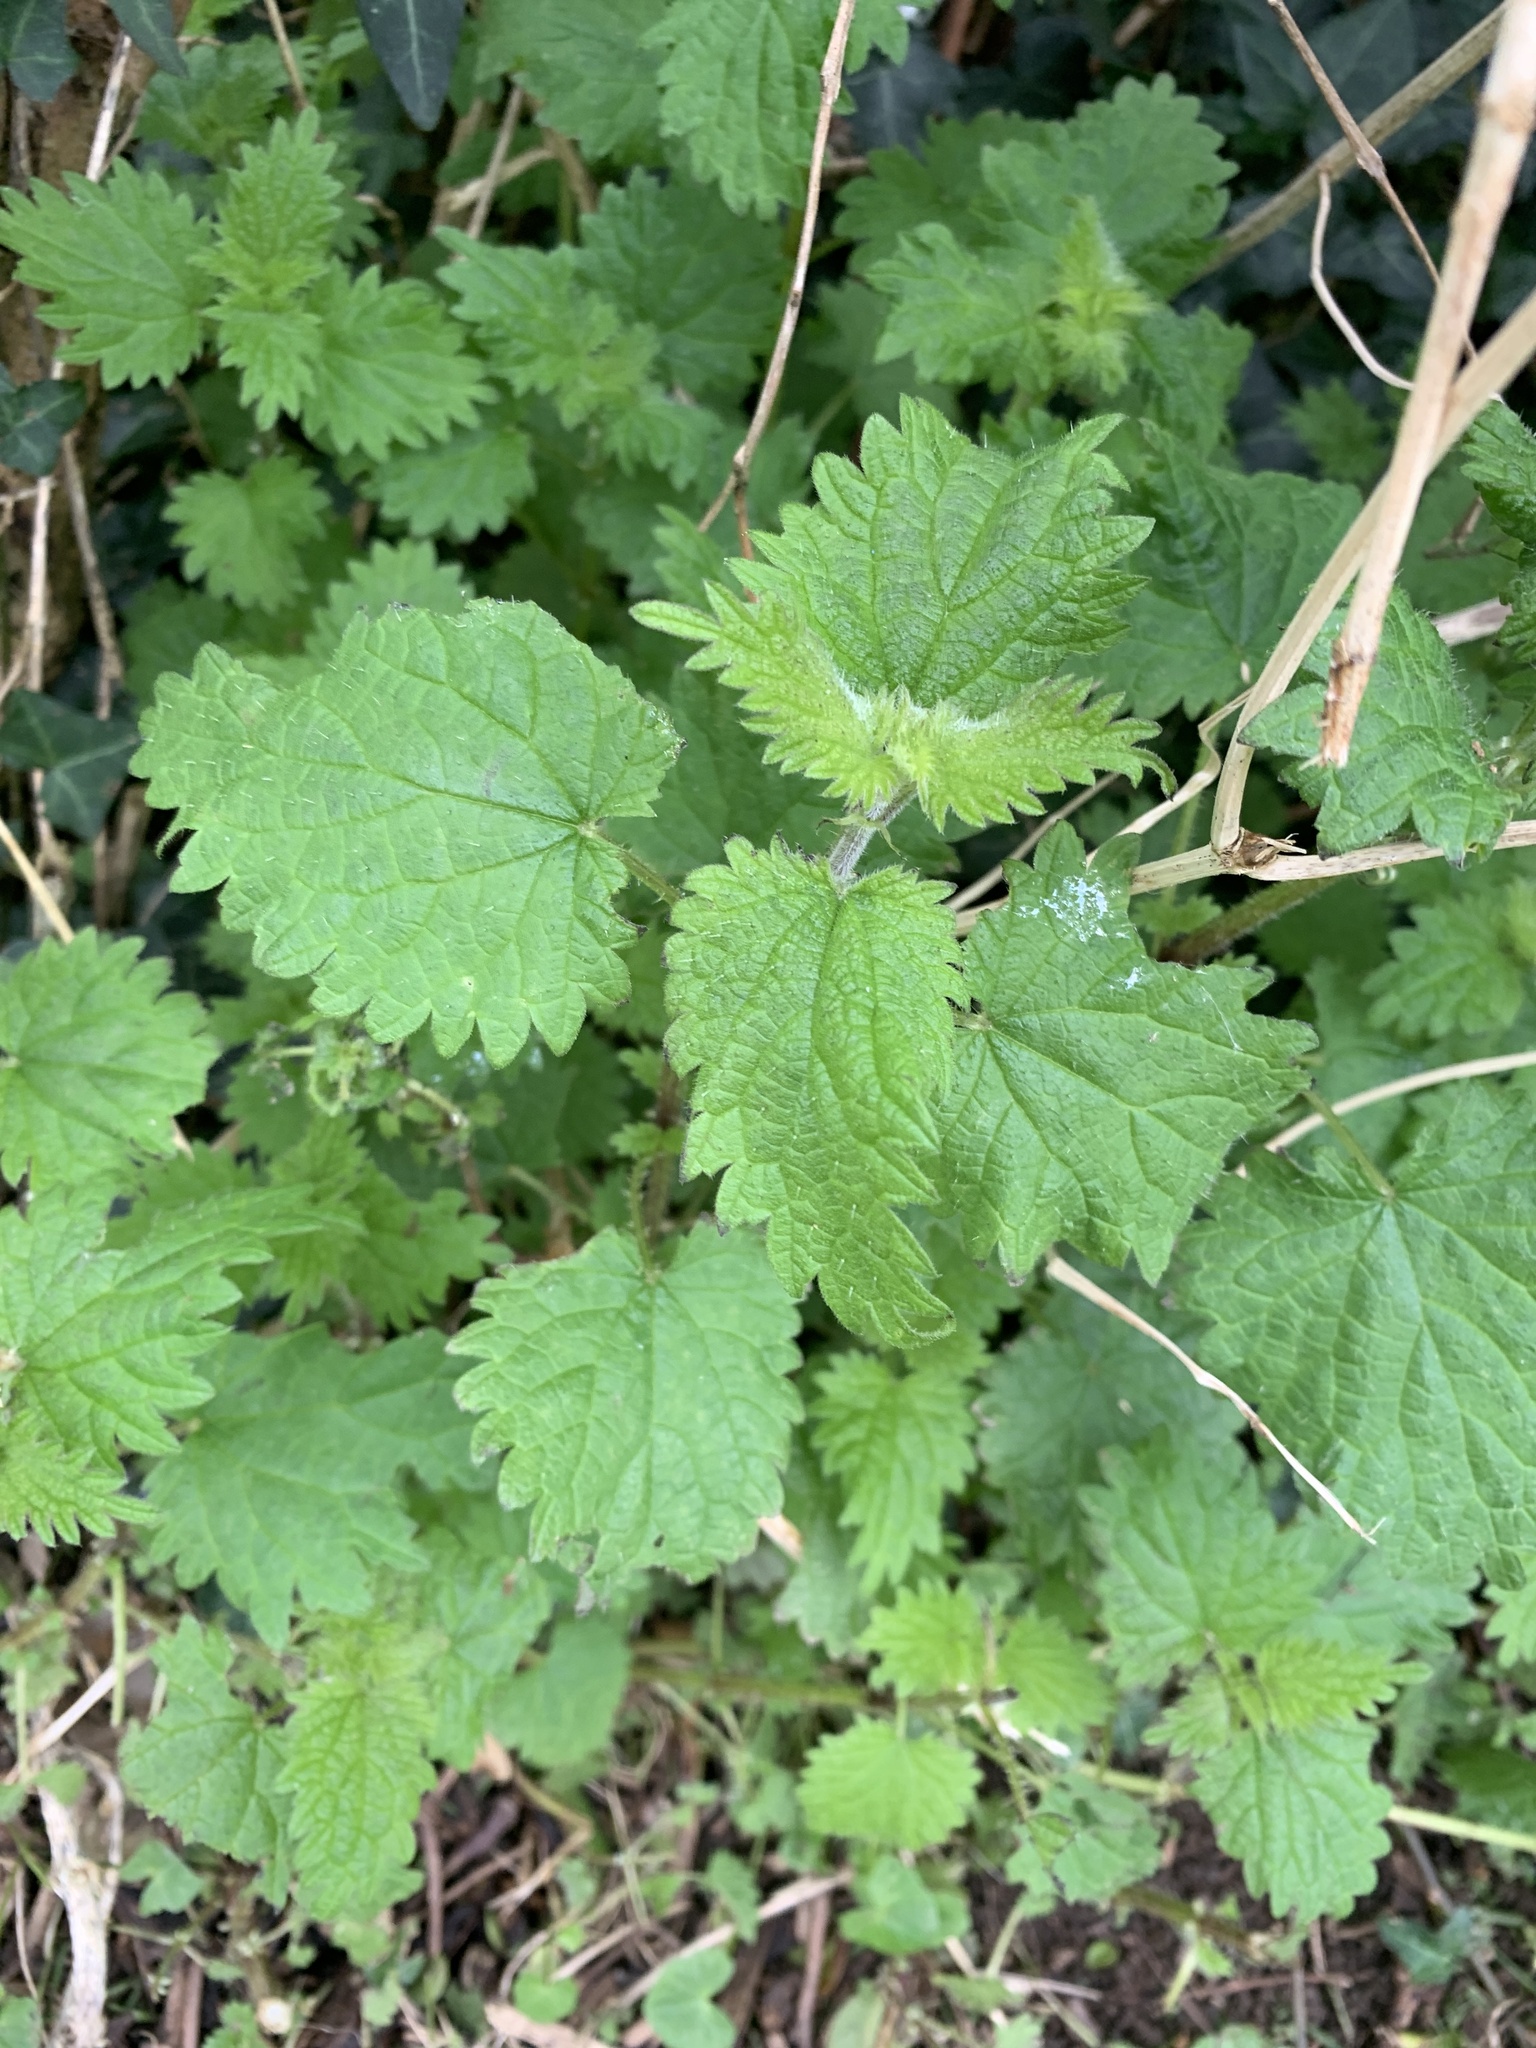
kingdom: Plantae
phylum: Tracheophyta
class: Magnoliopsida
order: Rosales
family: Urticaceae
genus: Urtica
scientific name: Urtica dioica
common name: Common nettle
